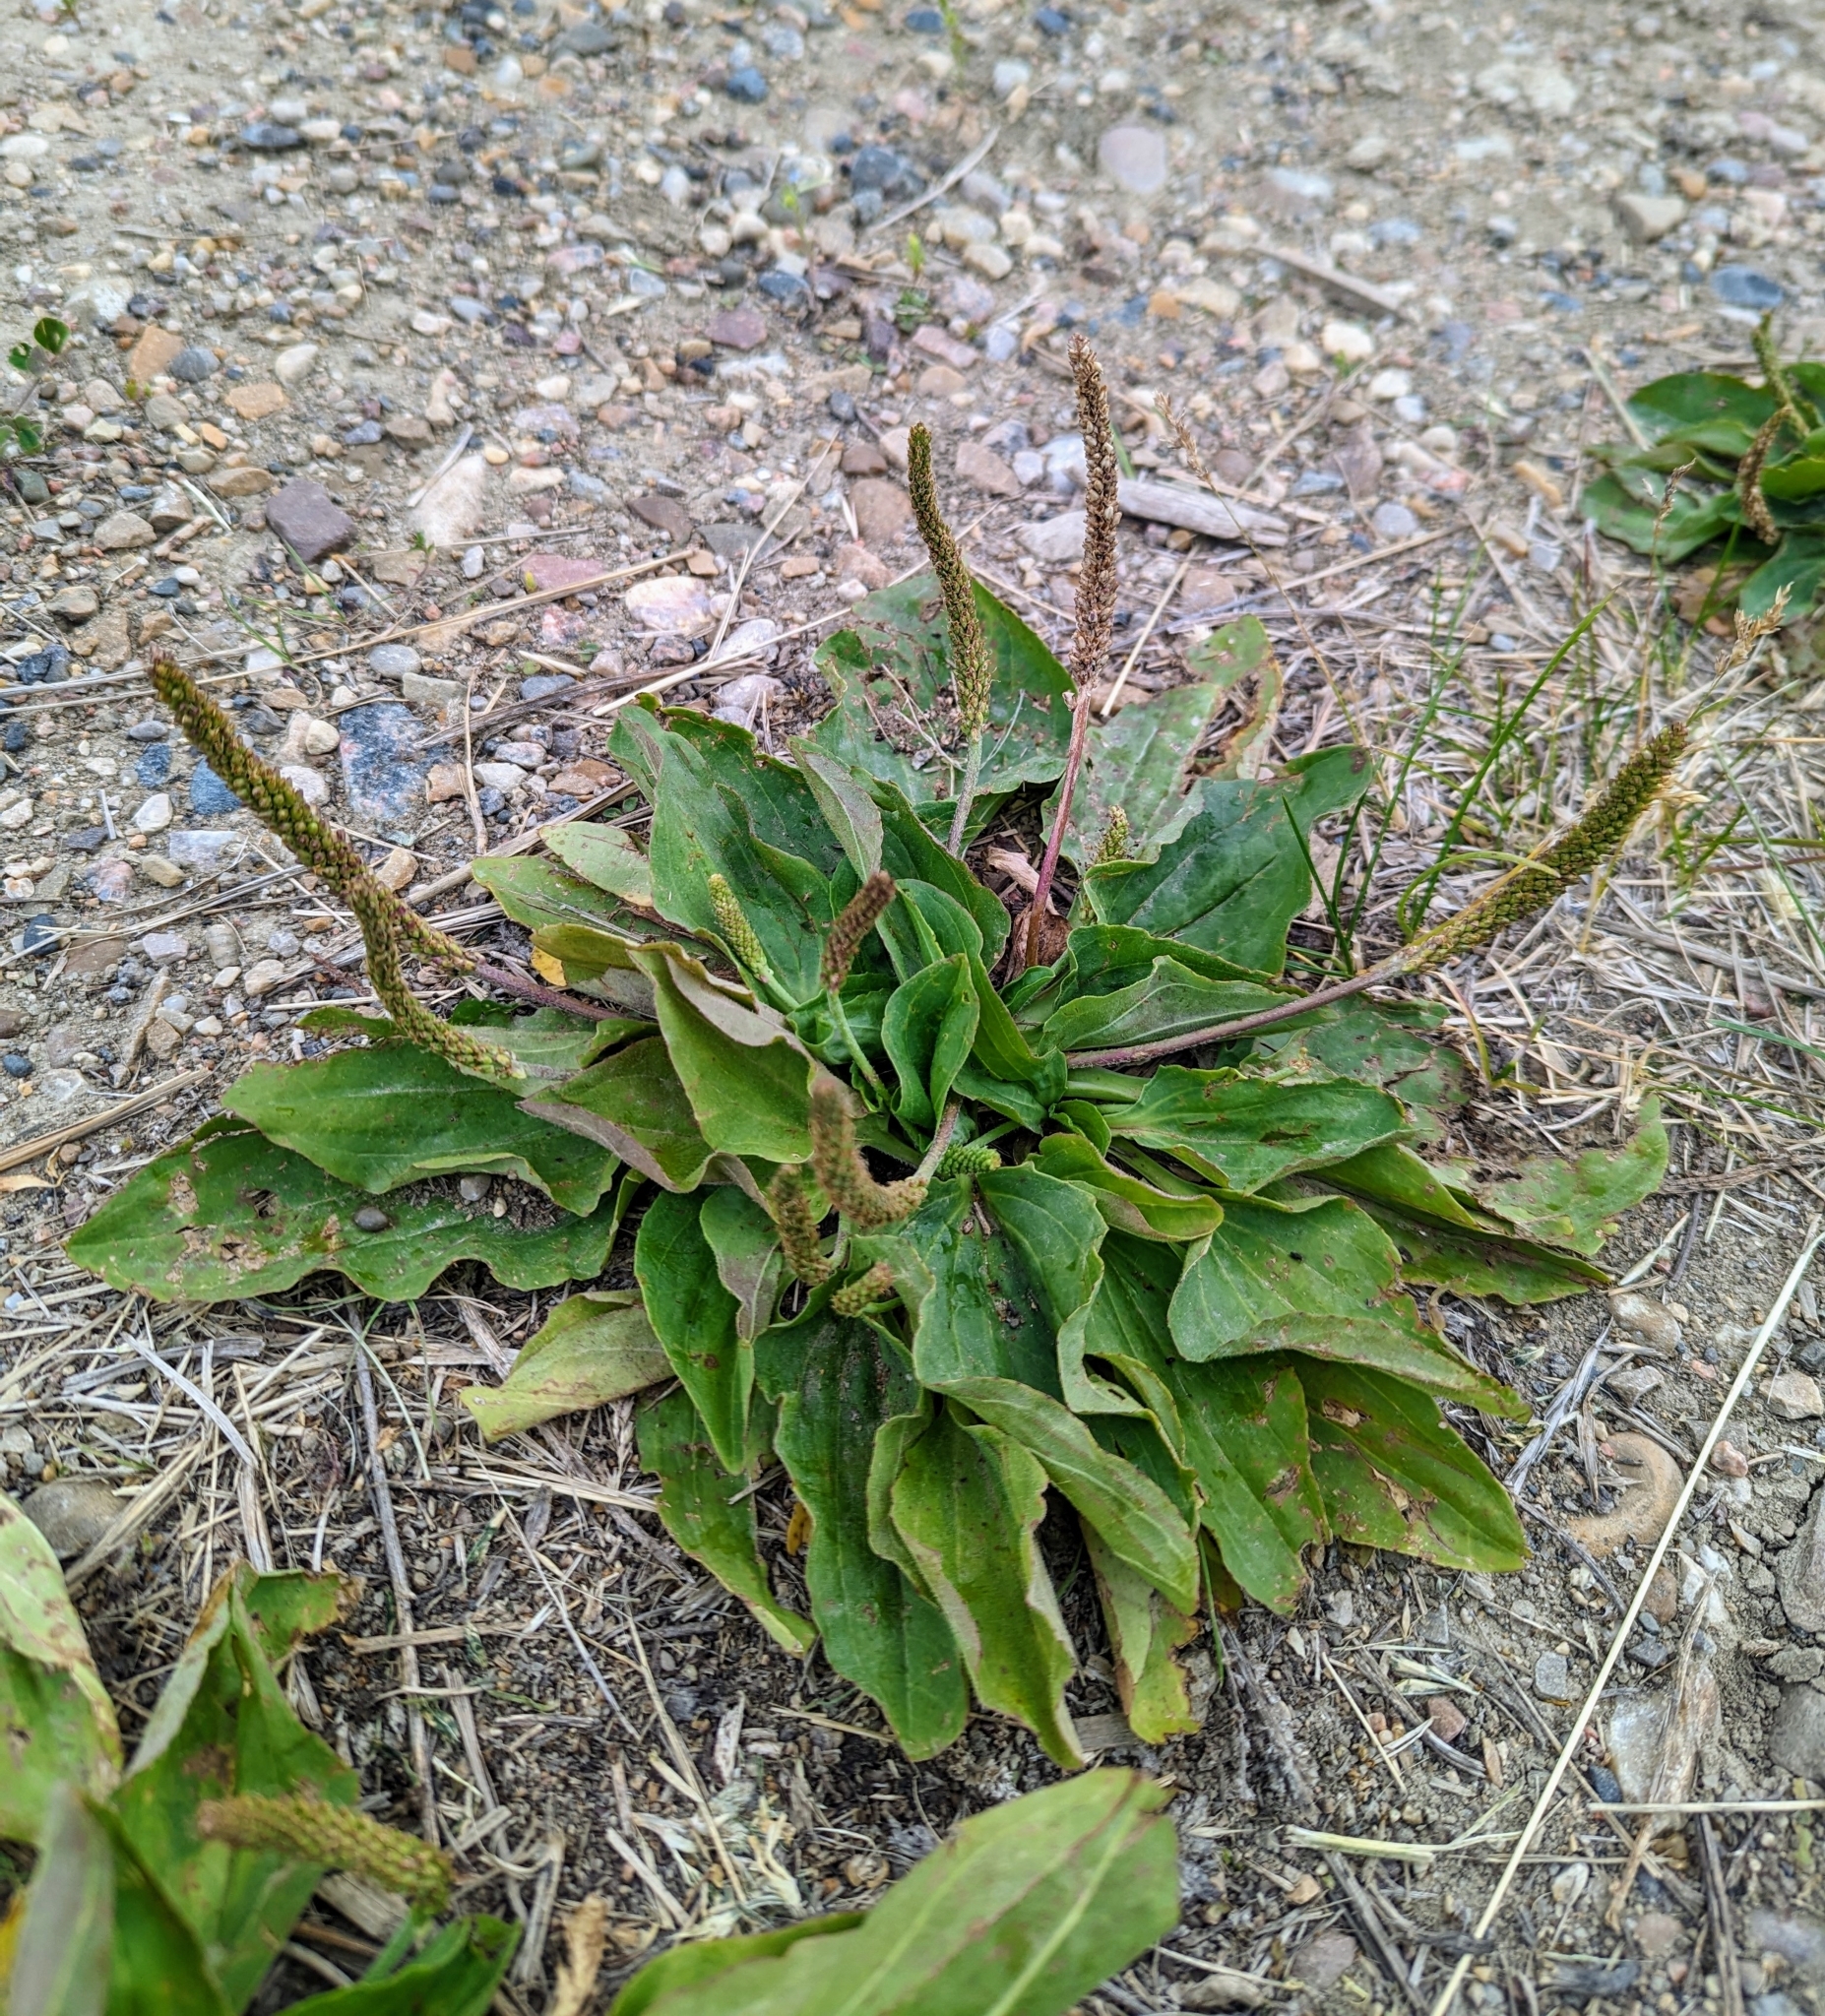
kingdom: Plantae
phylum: Tracheophyta
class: Magnoliopsida
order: Lamiales
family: Plantaginaceae
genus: Plantago
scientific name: Plantago major
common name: Common plantain
